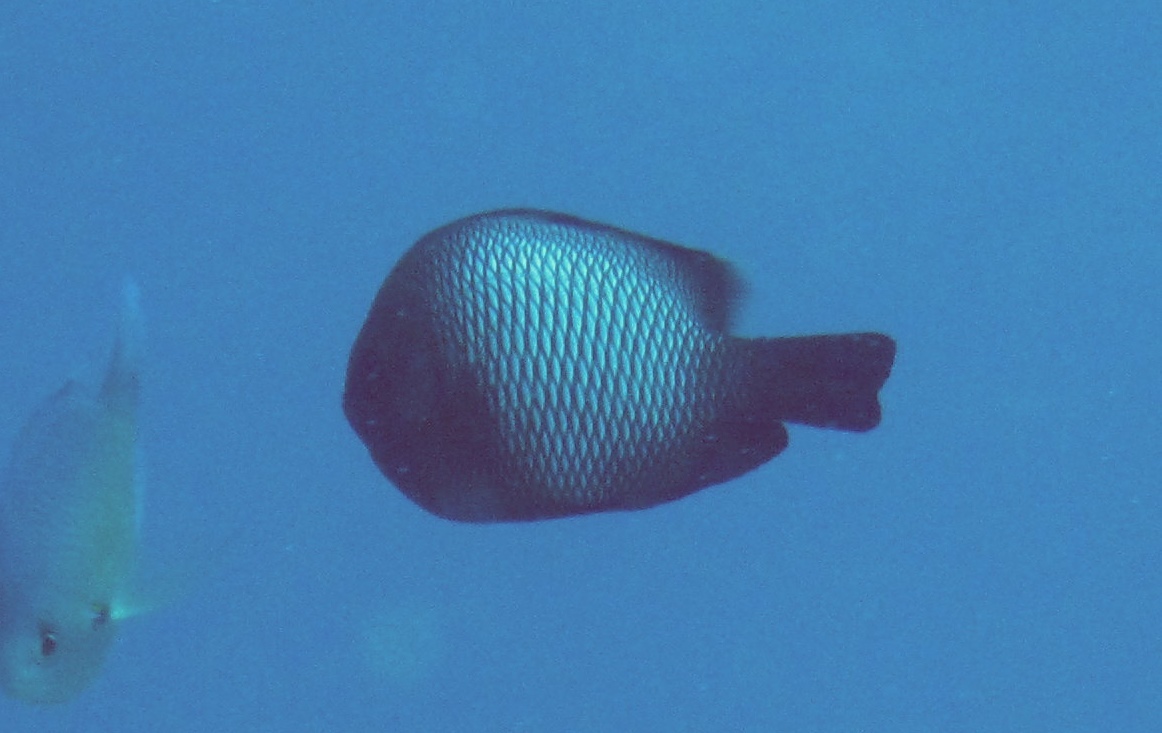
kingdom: Animalia
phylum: Chordata
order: Perciformes
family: Pomacentridae
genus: Dascyllus
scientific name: Dascyllus albisella
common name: Hawaiian dascyllus
